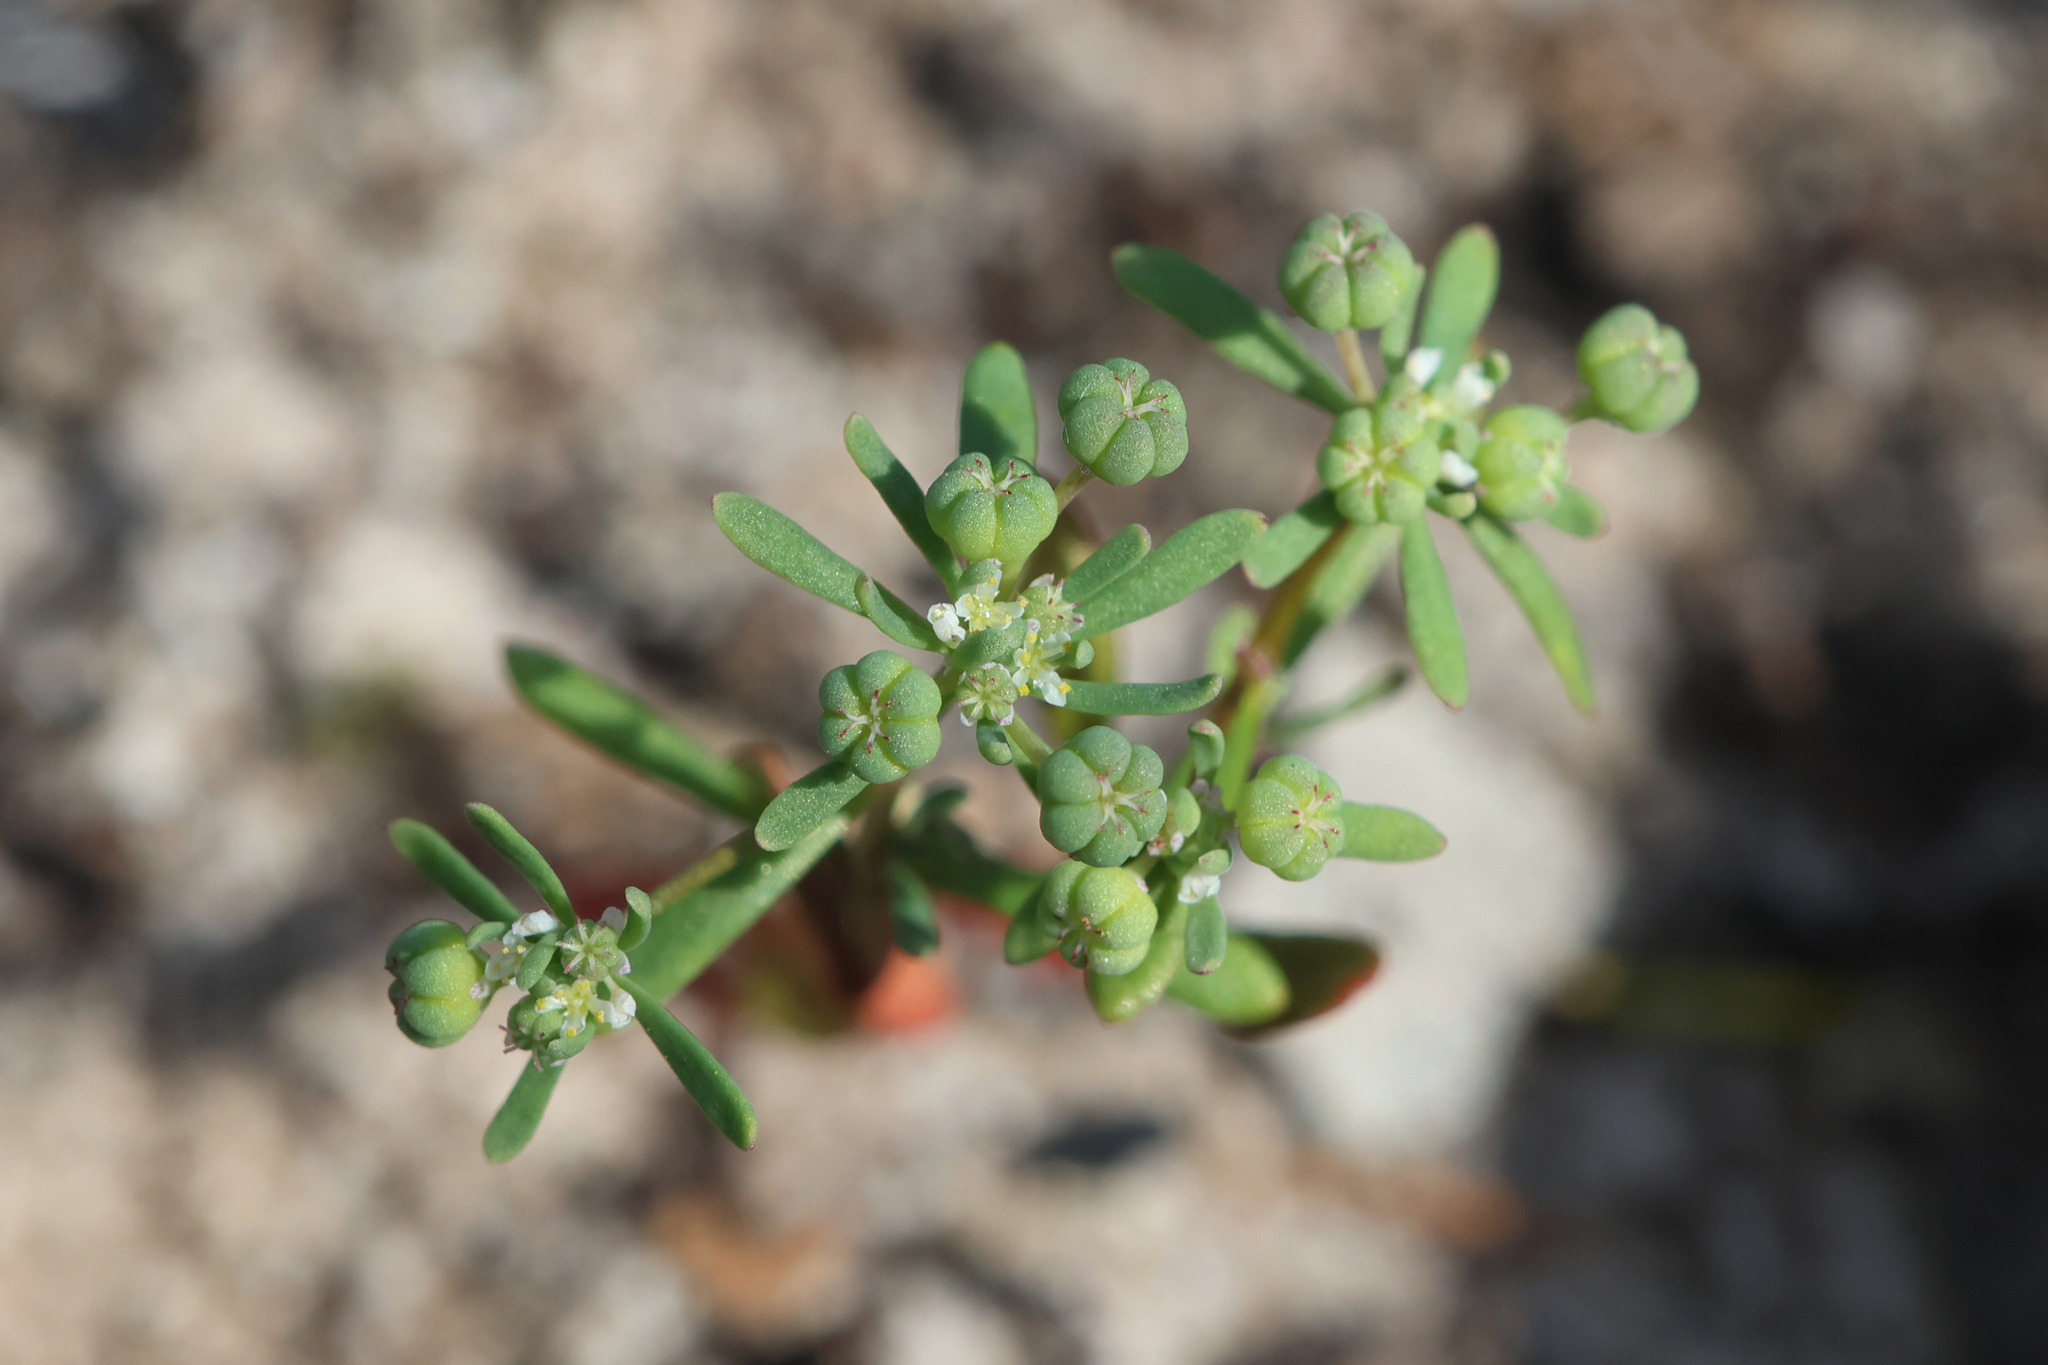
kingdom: Plantae
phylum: Tracheophyta
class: Magnoliopsida
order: Malpighiales
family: Phyllanthaceae
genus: Poranthera
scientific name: Poranthera microphylla
